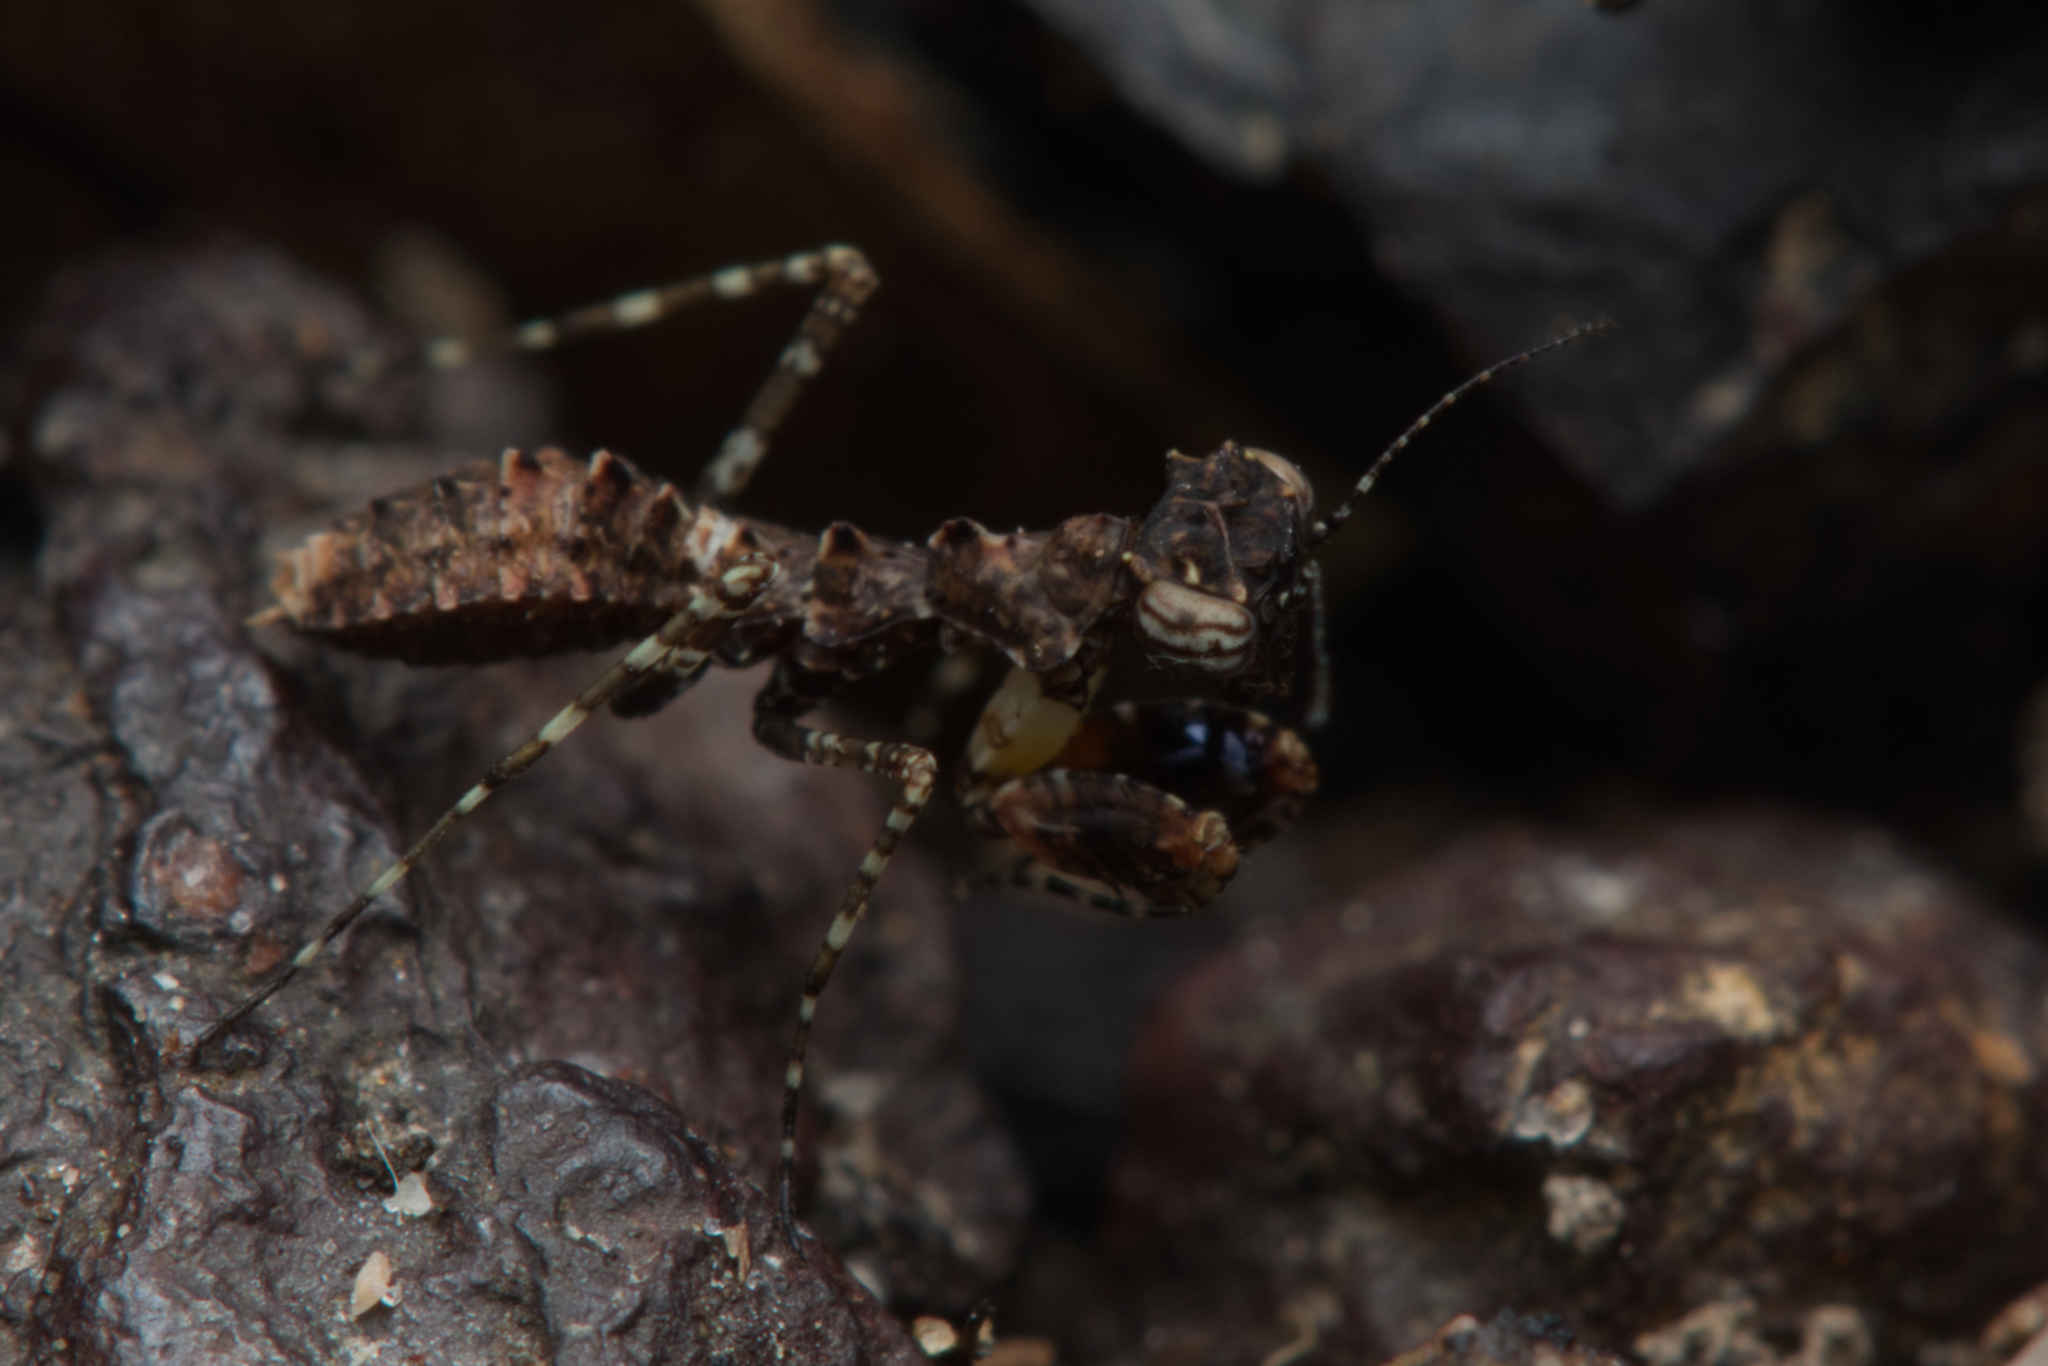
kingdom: Animalia
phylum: Arthropoda
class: Insecta
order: Mantodea
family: Nanomantidae
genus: Paraoxypilus
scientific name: Paraoxypilus tasmaniensis
